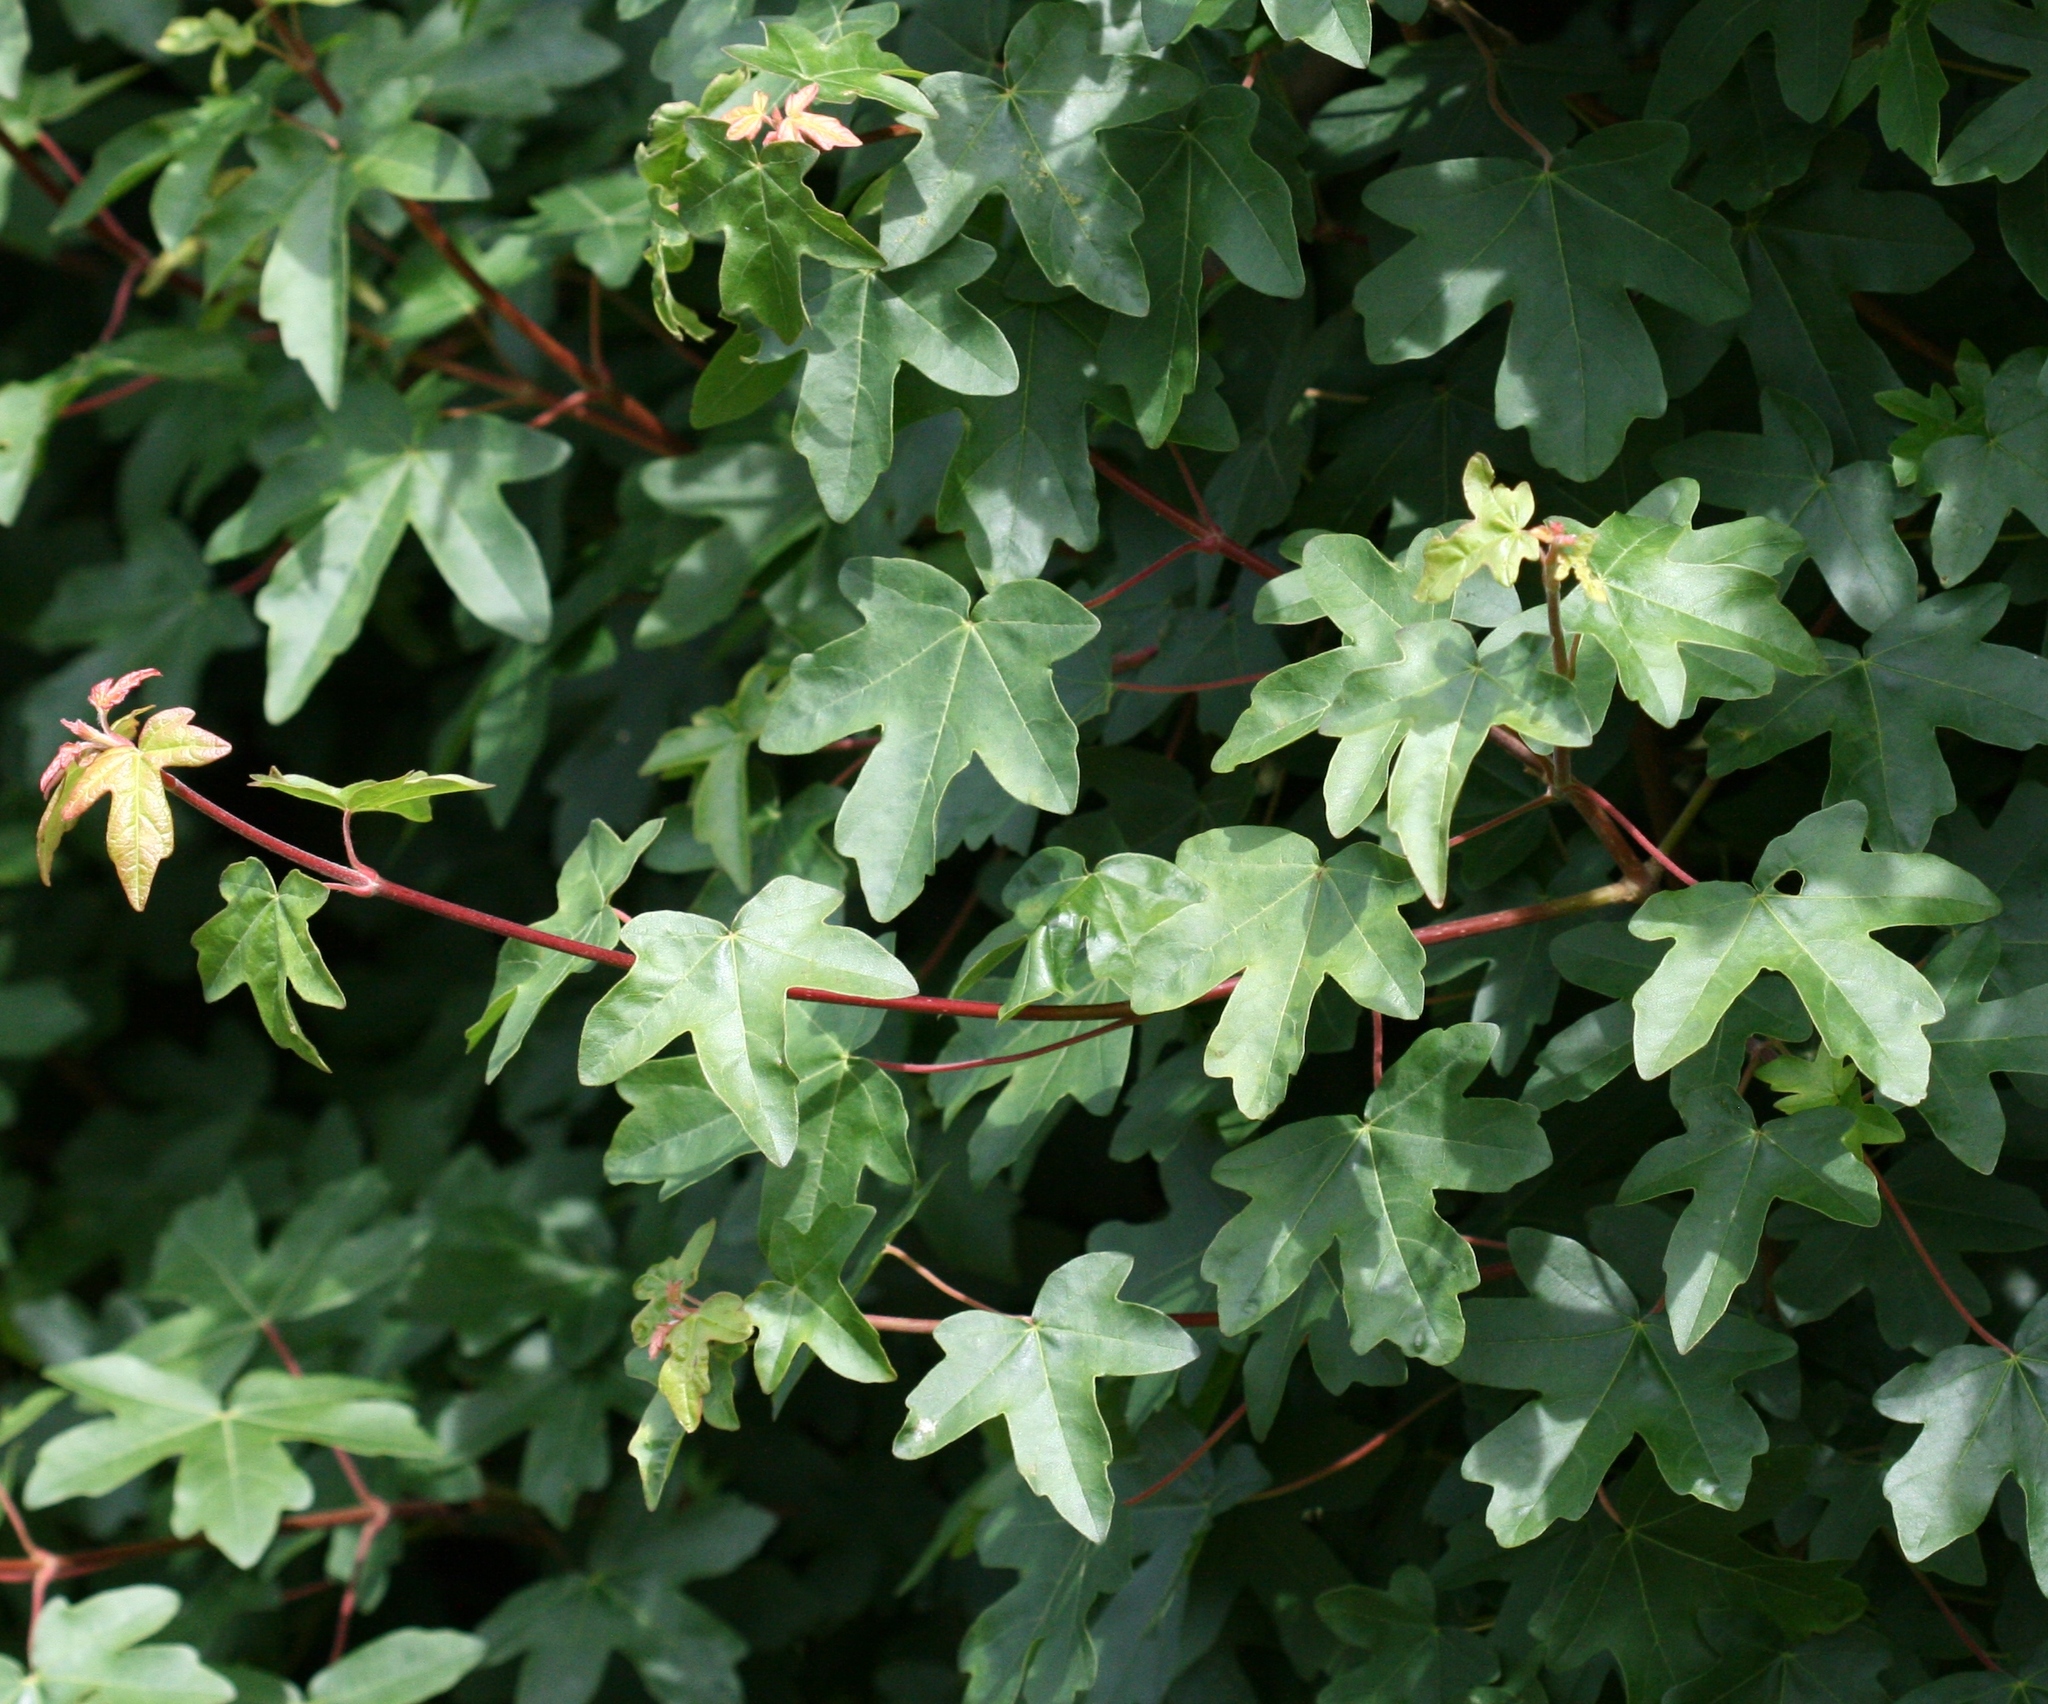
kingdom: Plantae
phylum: Tracheophyta
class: Magnoliopsida
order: Sapindales
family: Sapindaceae
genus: Acer
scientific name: Acer campestre
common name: Field maple
